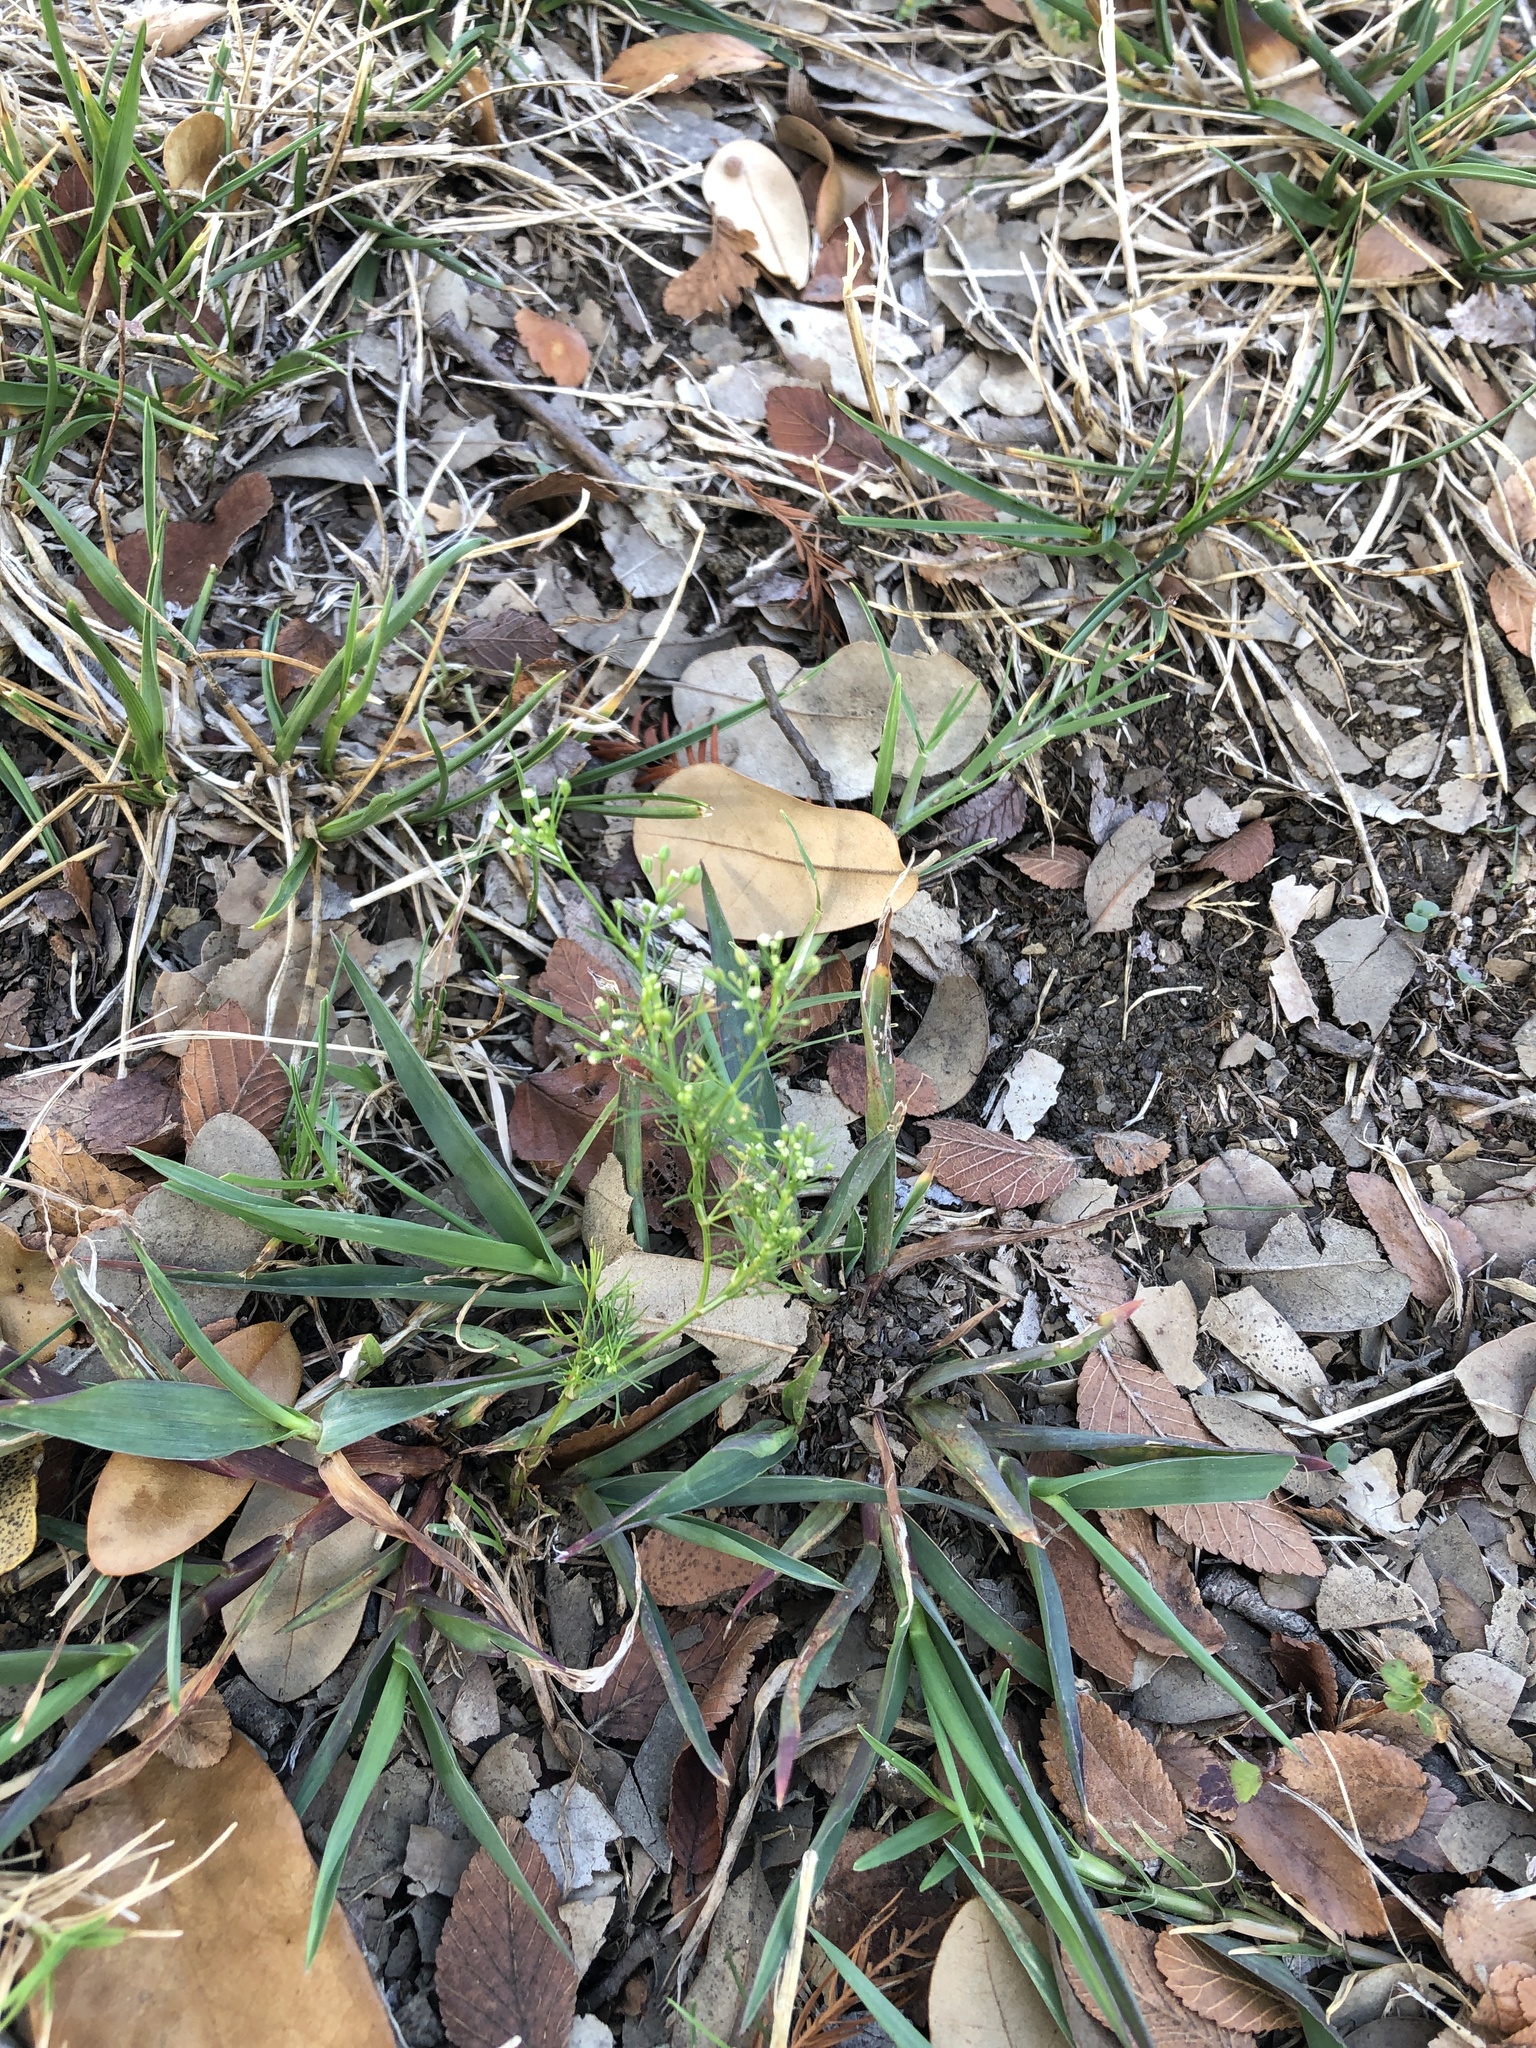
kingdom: Plantae
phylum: Tracheophyta
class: Magnoliopsida
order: Apiales
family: Apiaceae
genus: Cyclospermum
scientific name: Cyclospermum leptophyllum
